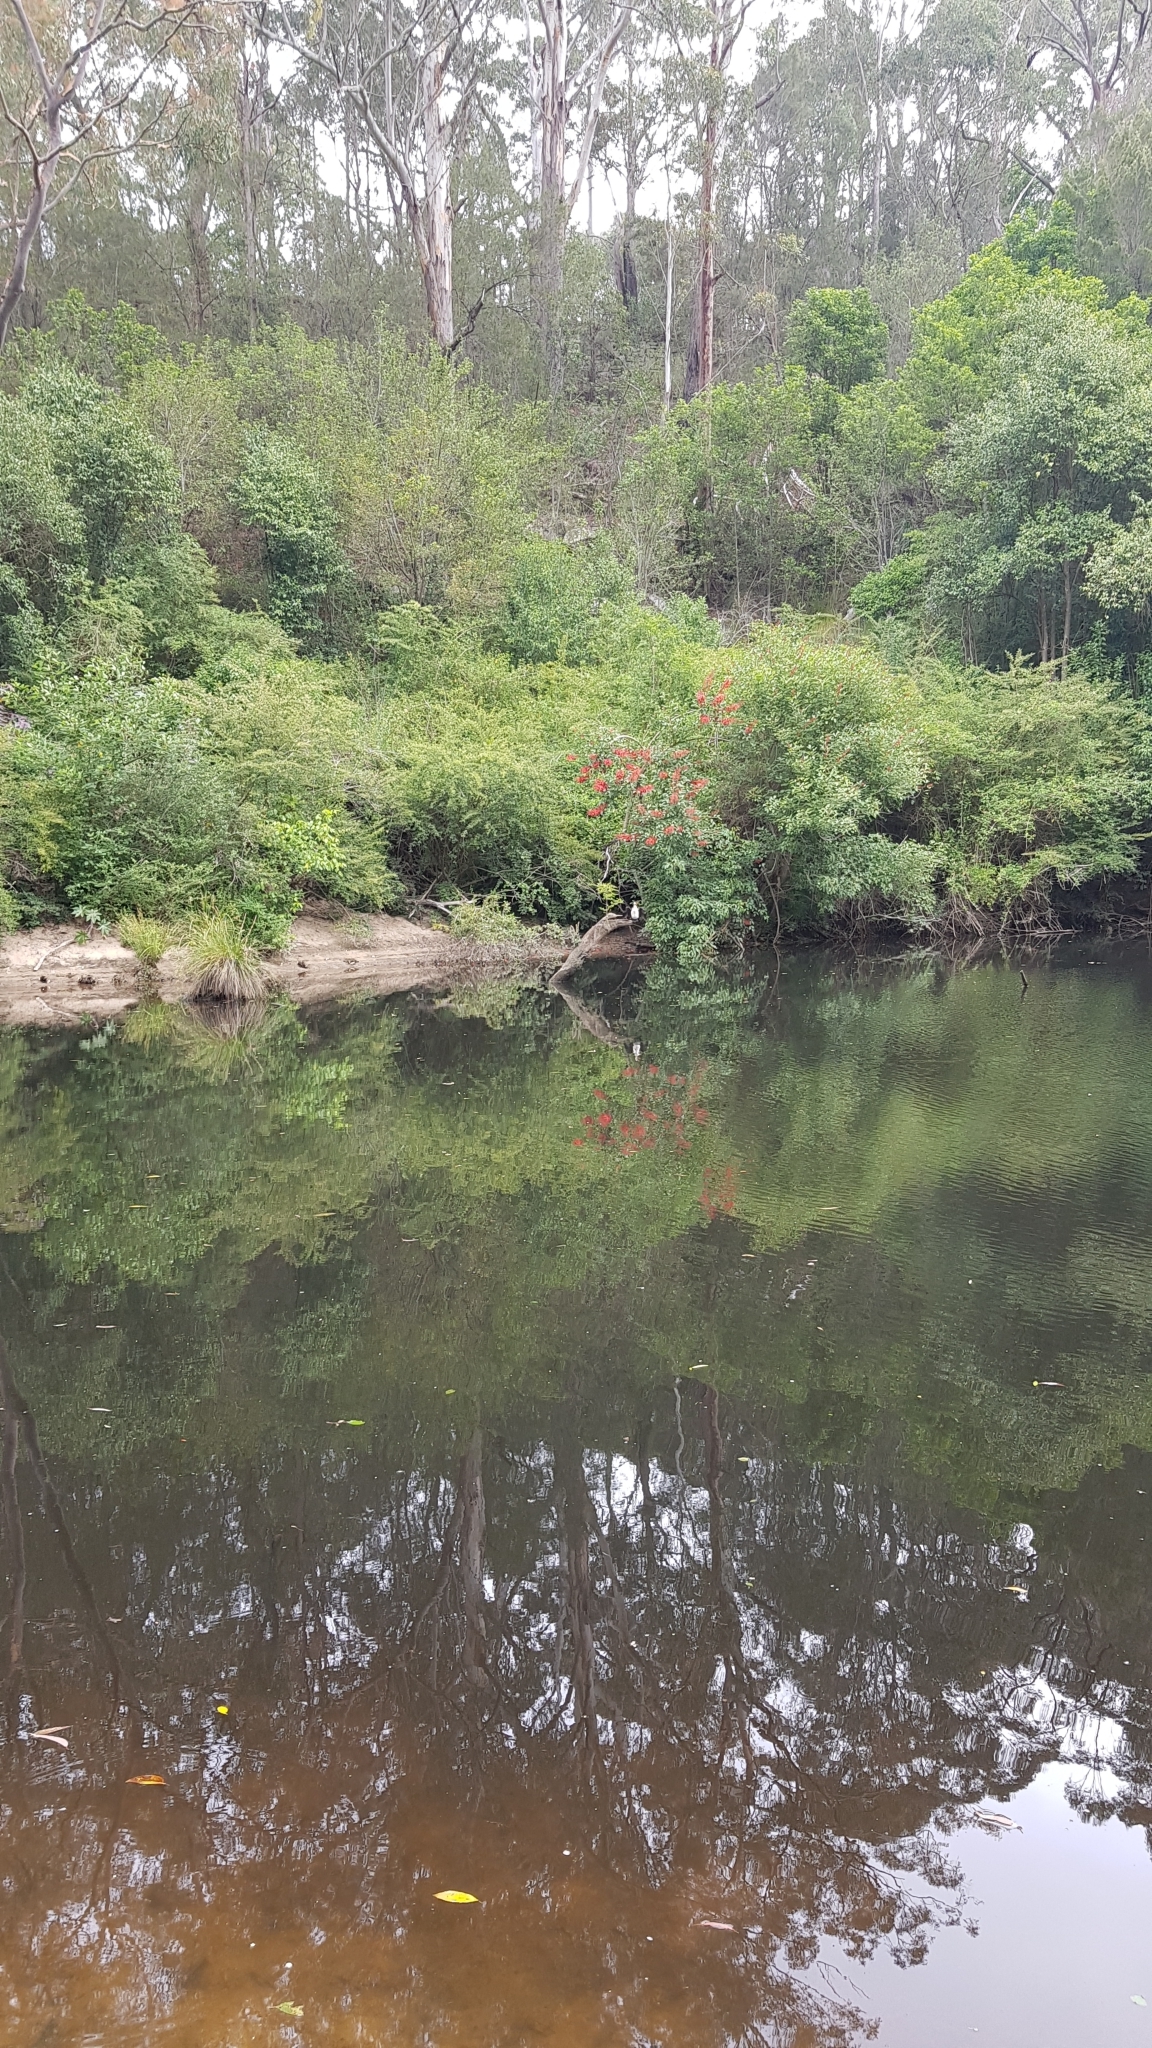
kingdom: Animalia
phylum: Chordata
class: Aves
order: Suliformes
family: Phalacrocoracidae
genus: Microcarbo
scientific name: Microcarbo melanoleucos
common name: Little pied cormorant
